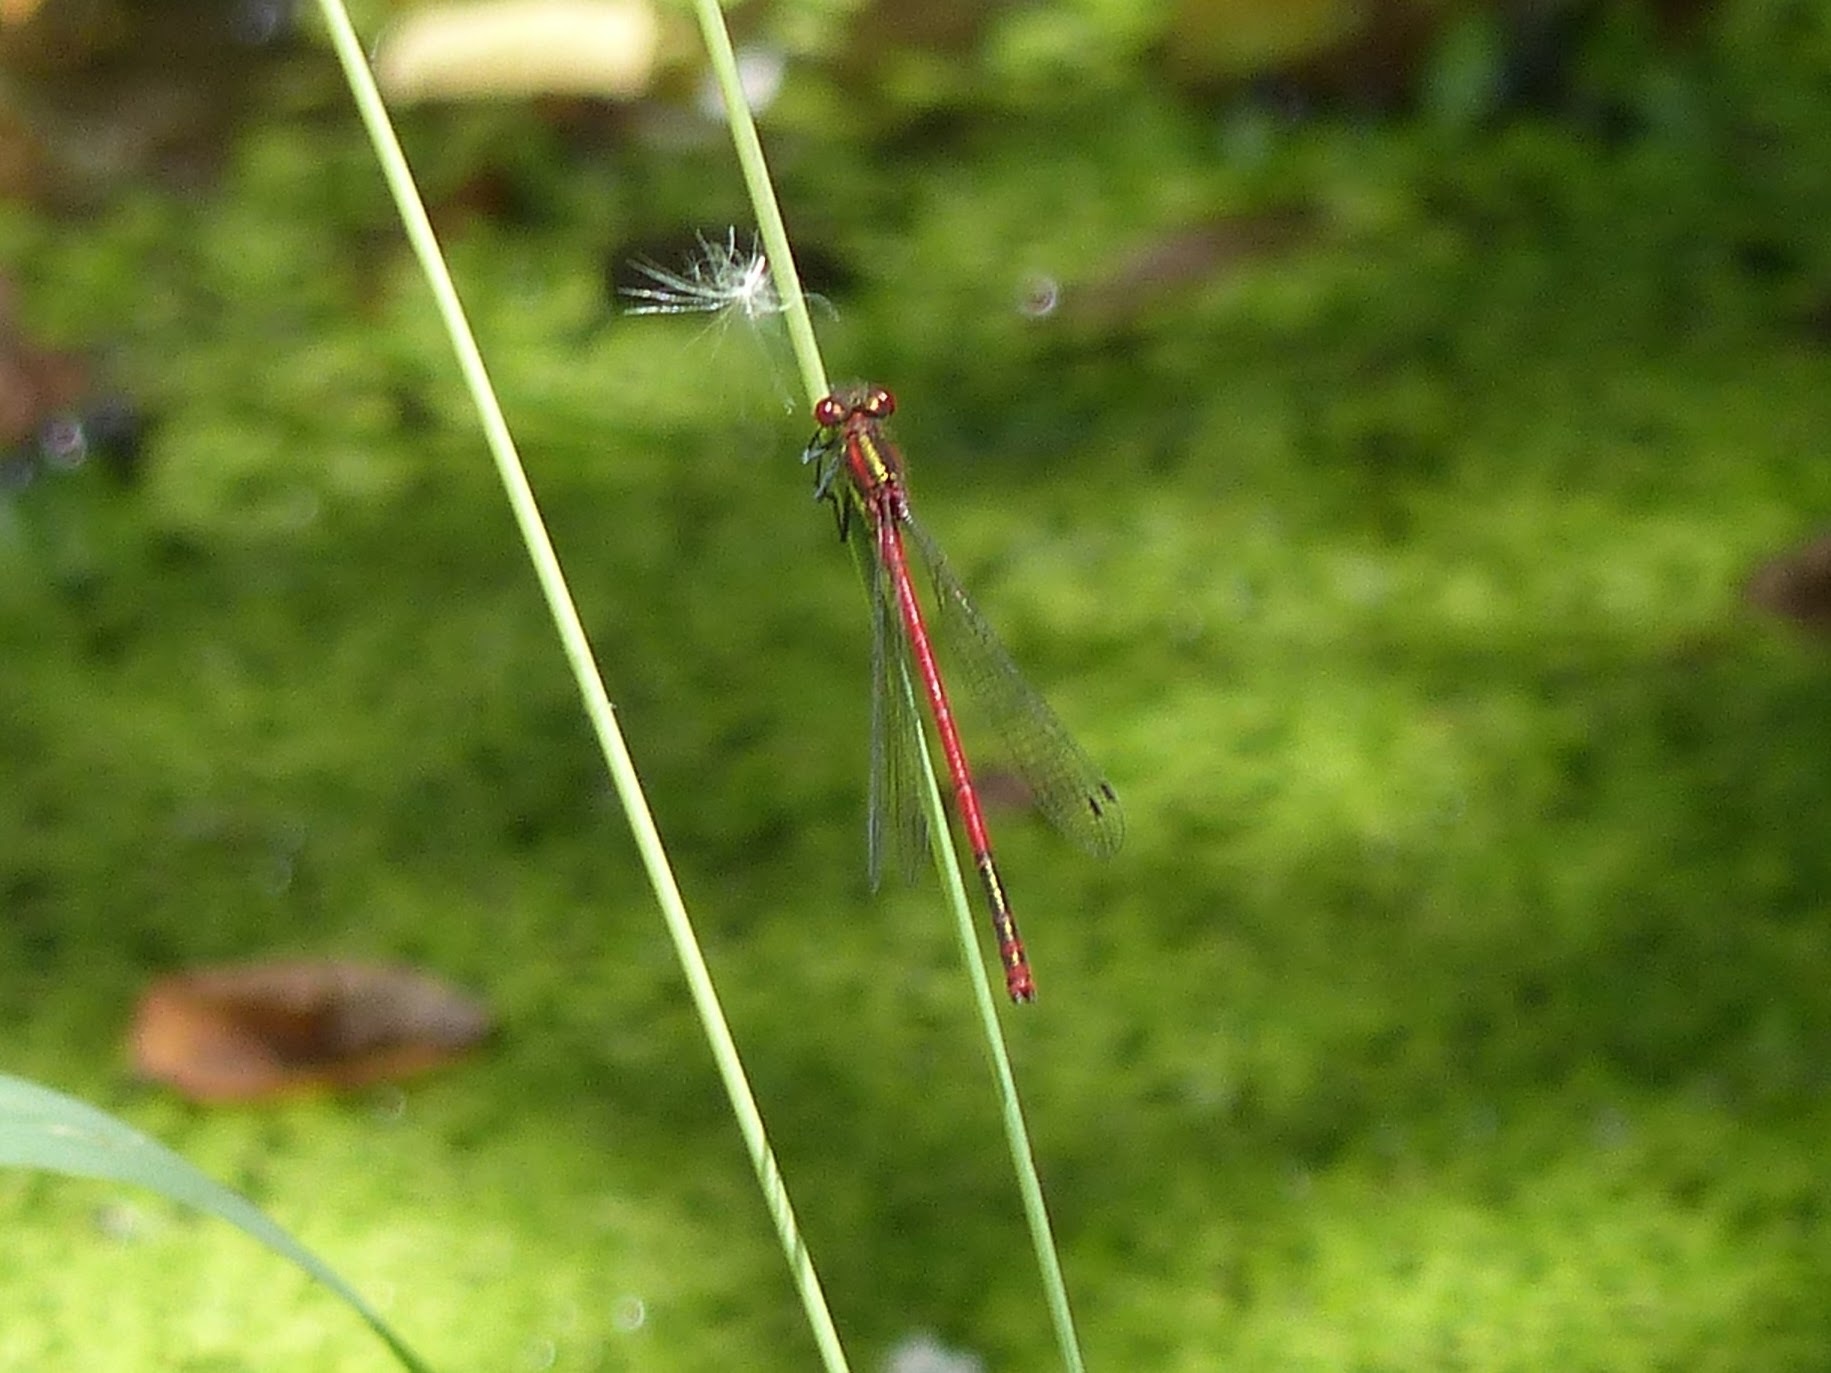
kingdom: Animalia
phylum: Arthropoda
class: Insecta
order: Odonata
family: Coenagrionidae
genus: Pyrrhosoma
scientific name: Pyrrhosoma nymphula
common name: Large red damsel
